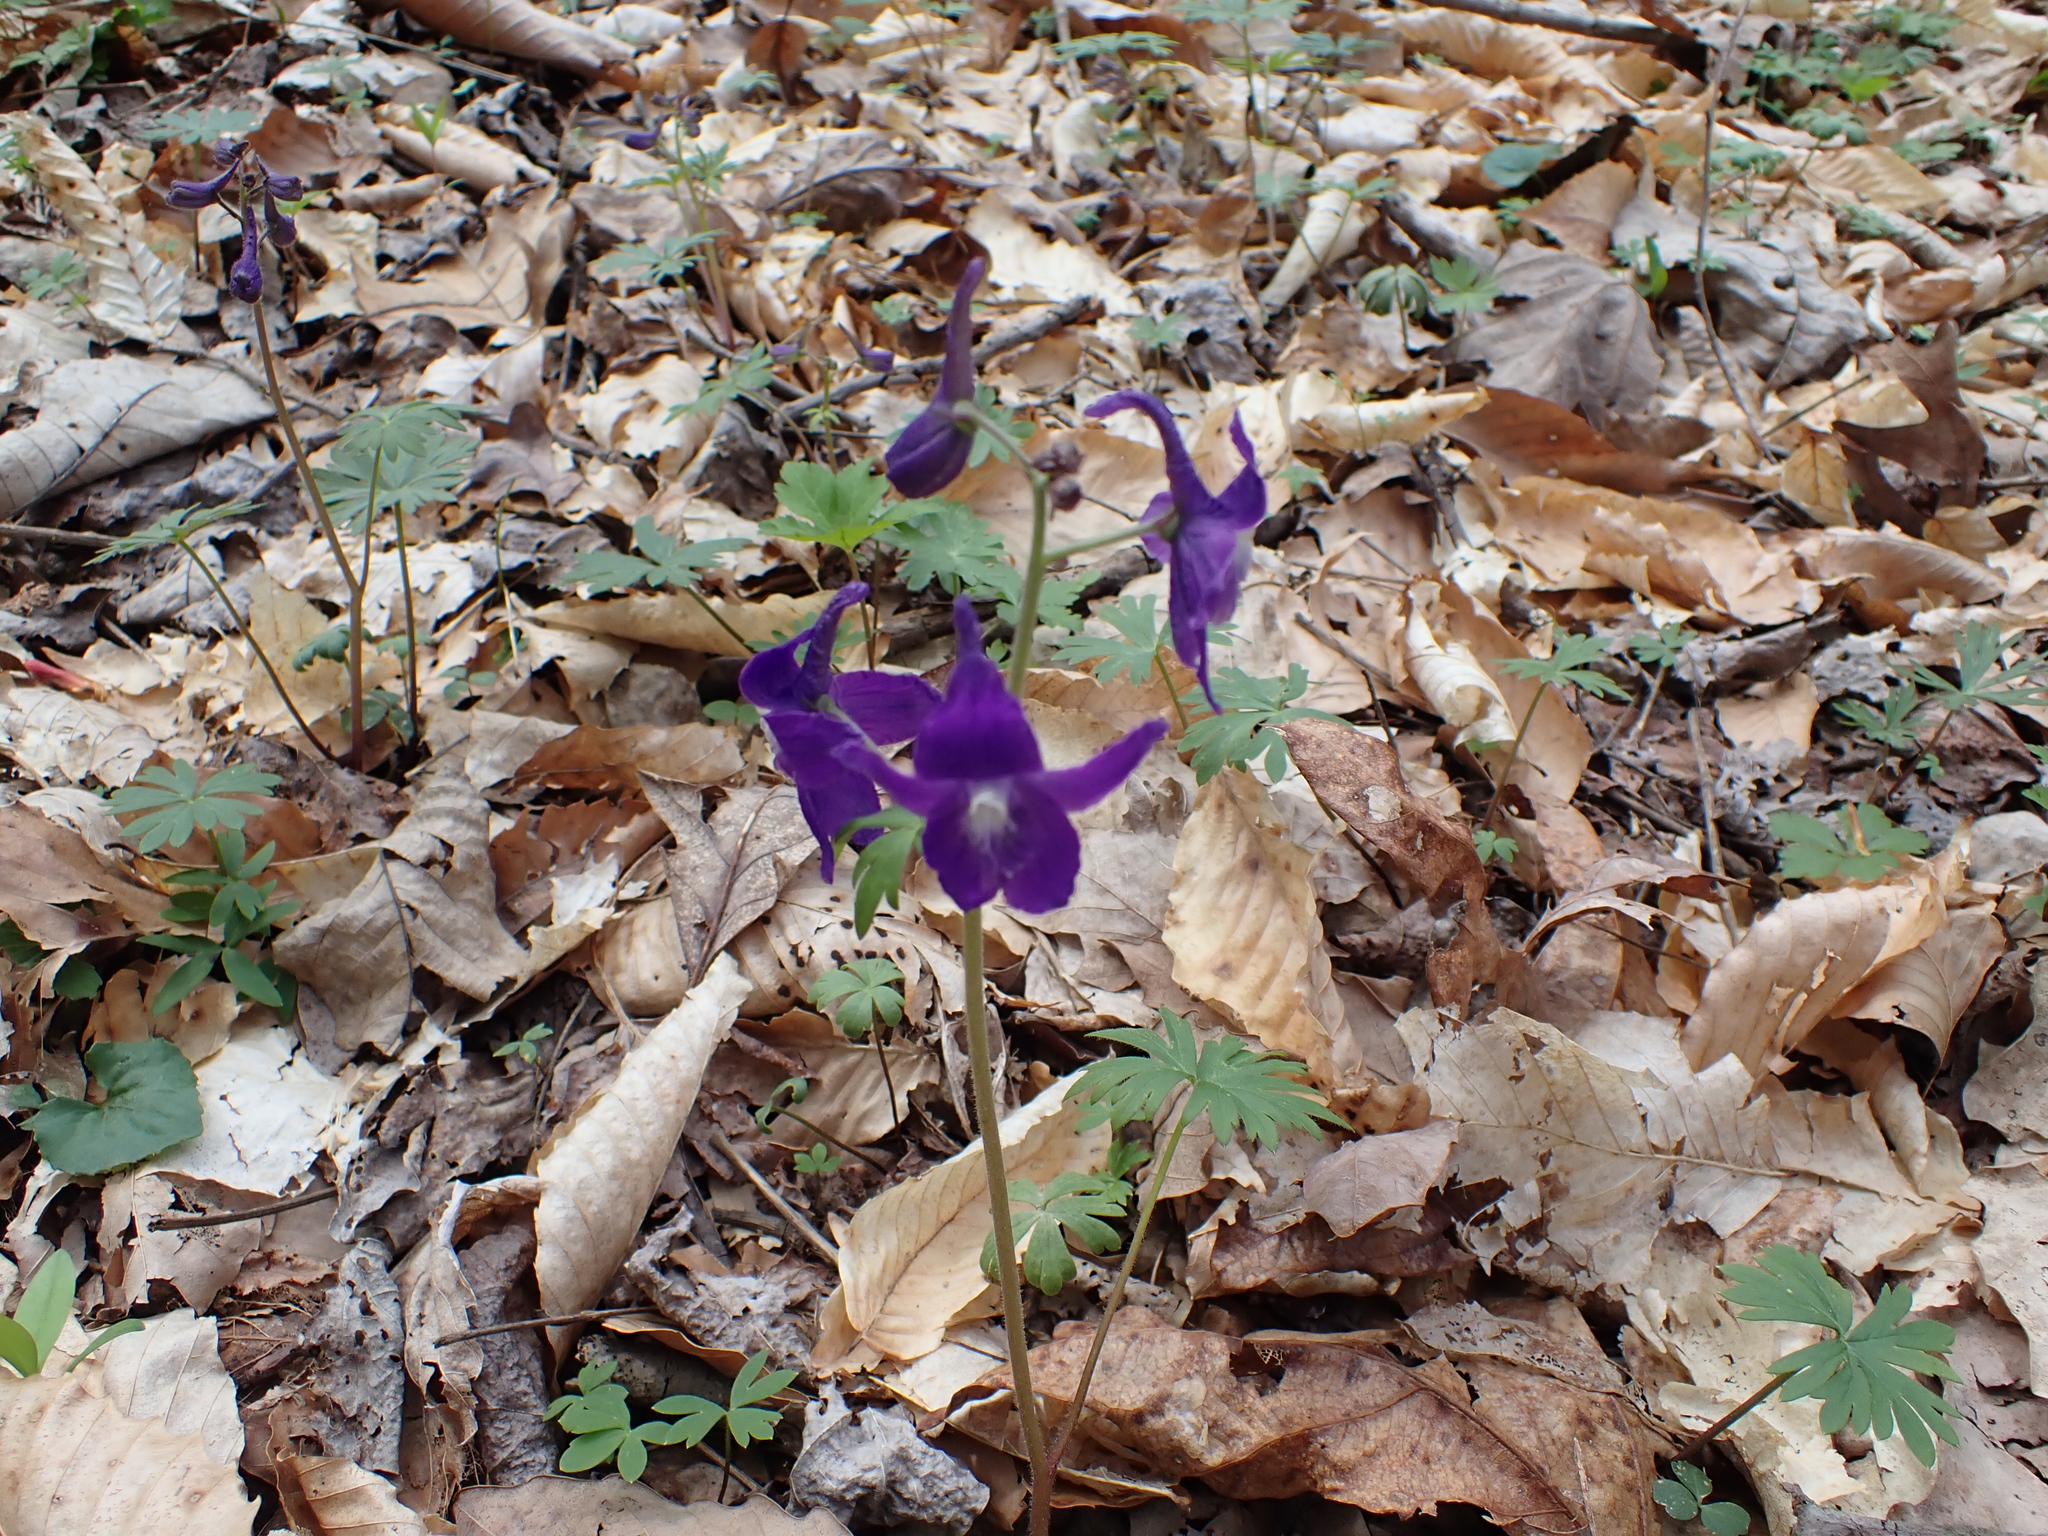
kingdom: Plantae
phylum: Tracheophyta
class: Magnoliopsida
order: Ranunculales
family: Ranunculaceae
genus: Delphinium
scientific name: Delphinium tricorne
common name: Dwarf larkspur
